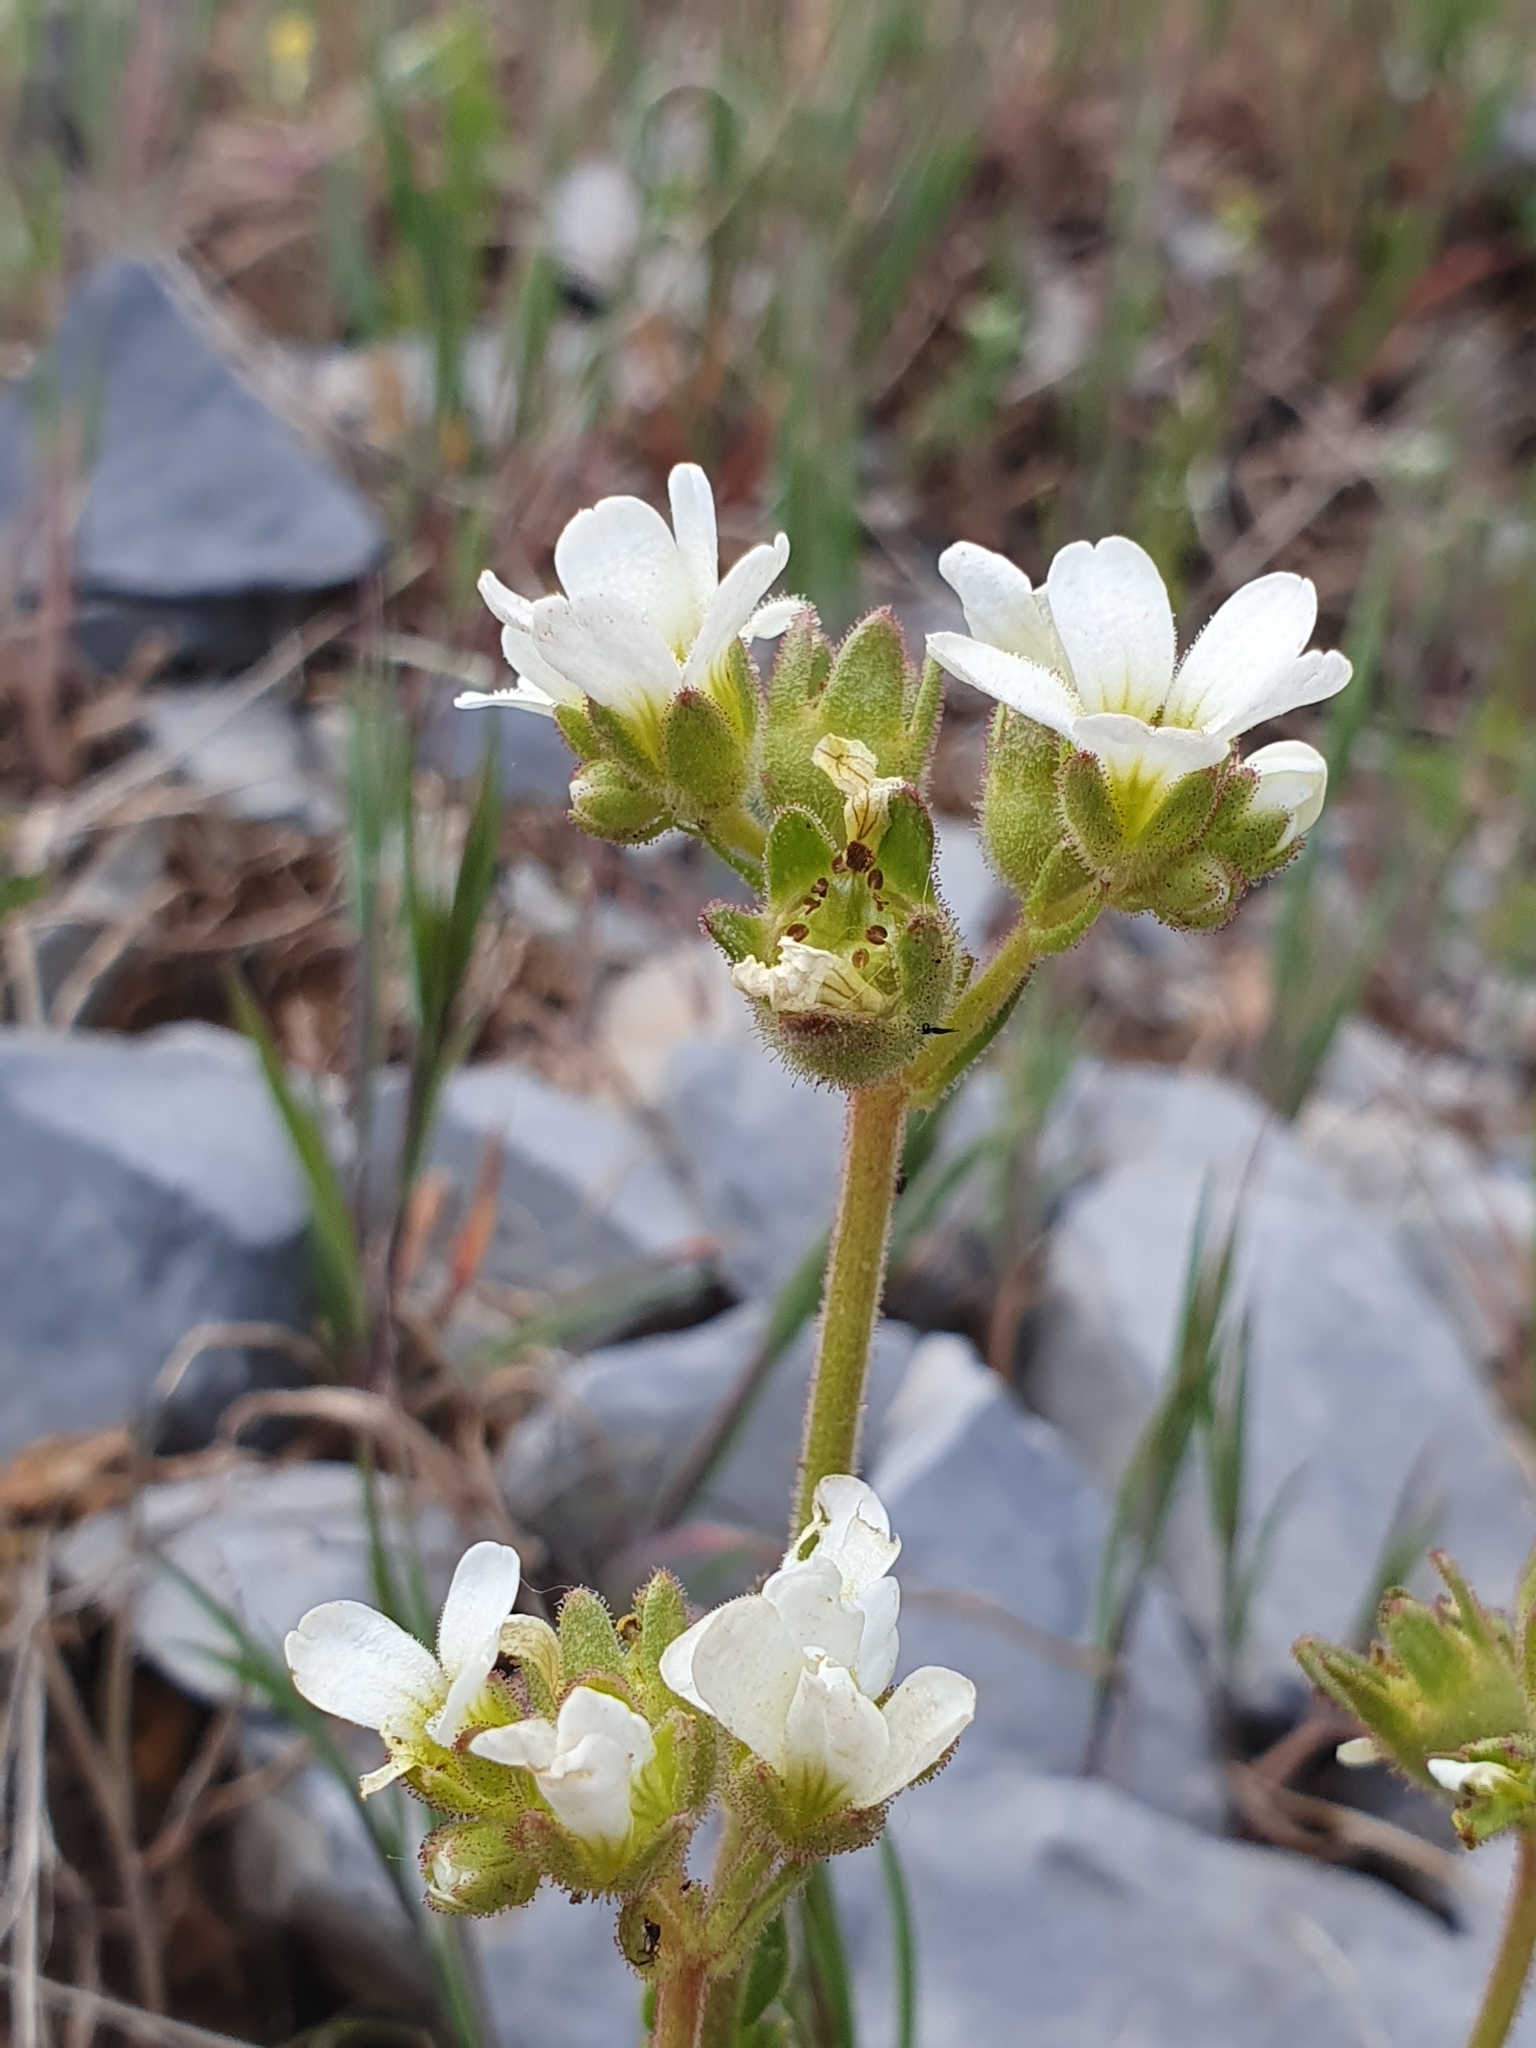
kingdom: Plantae
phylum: Tracheophyta
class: Magnoliopsida
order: Saxifragales
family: Saxifragaceae
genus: Saxifraga
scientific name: Saxifraga carpetana
